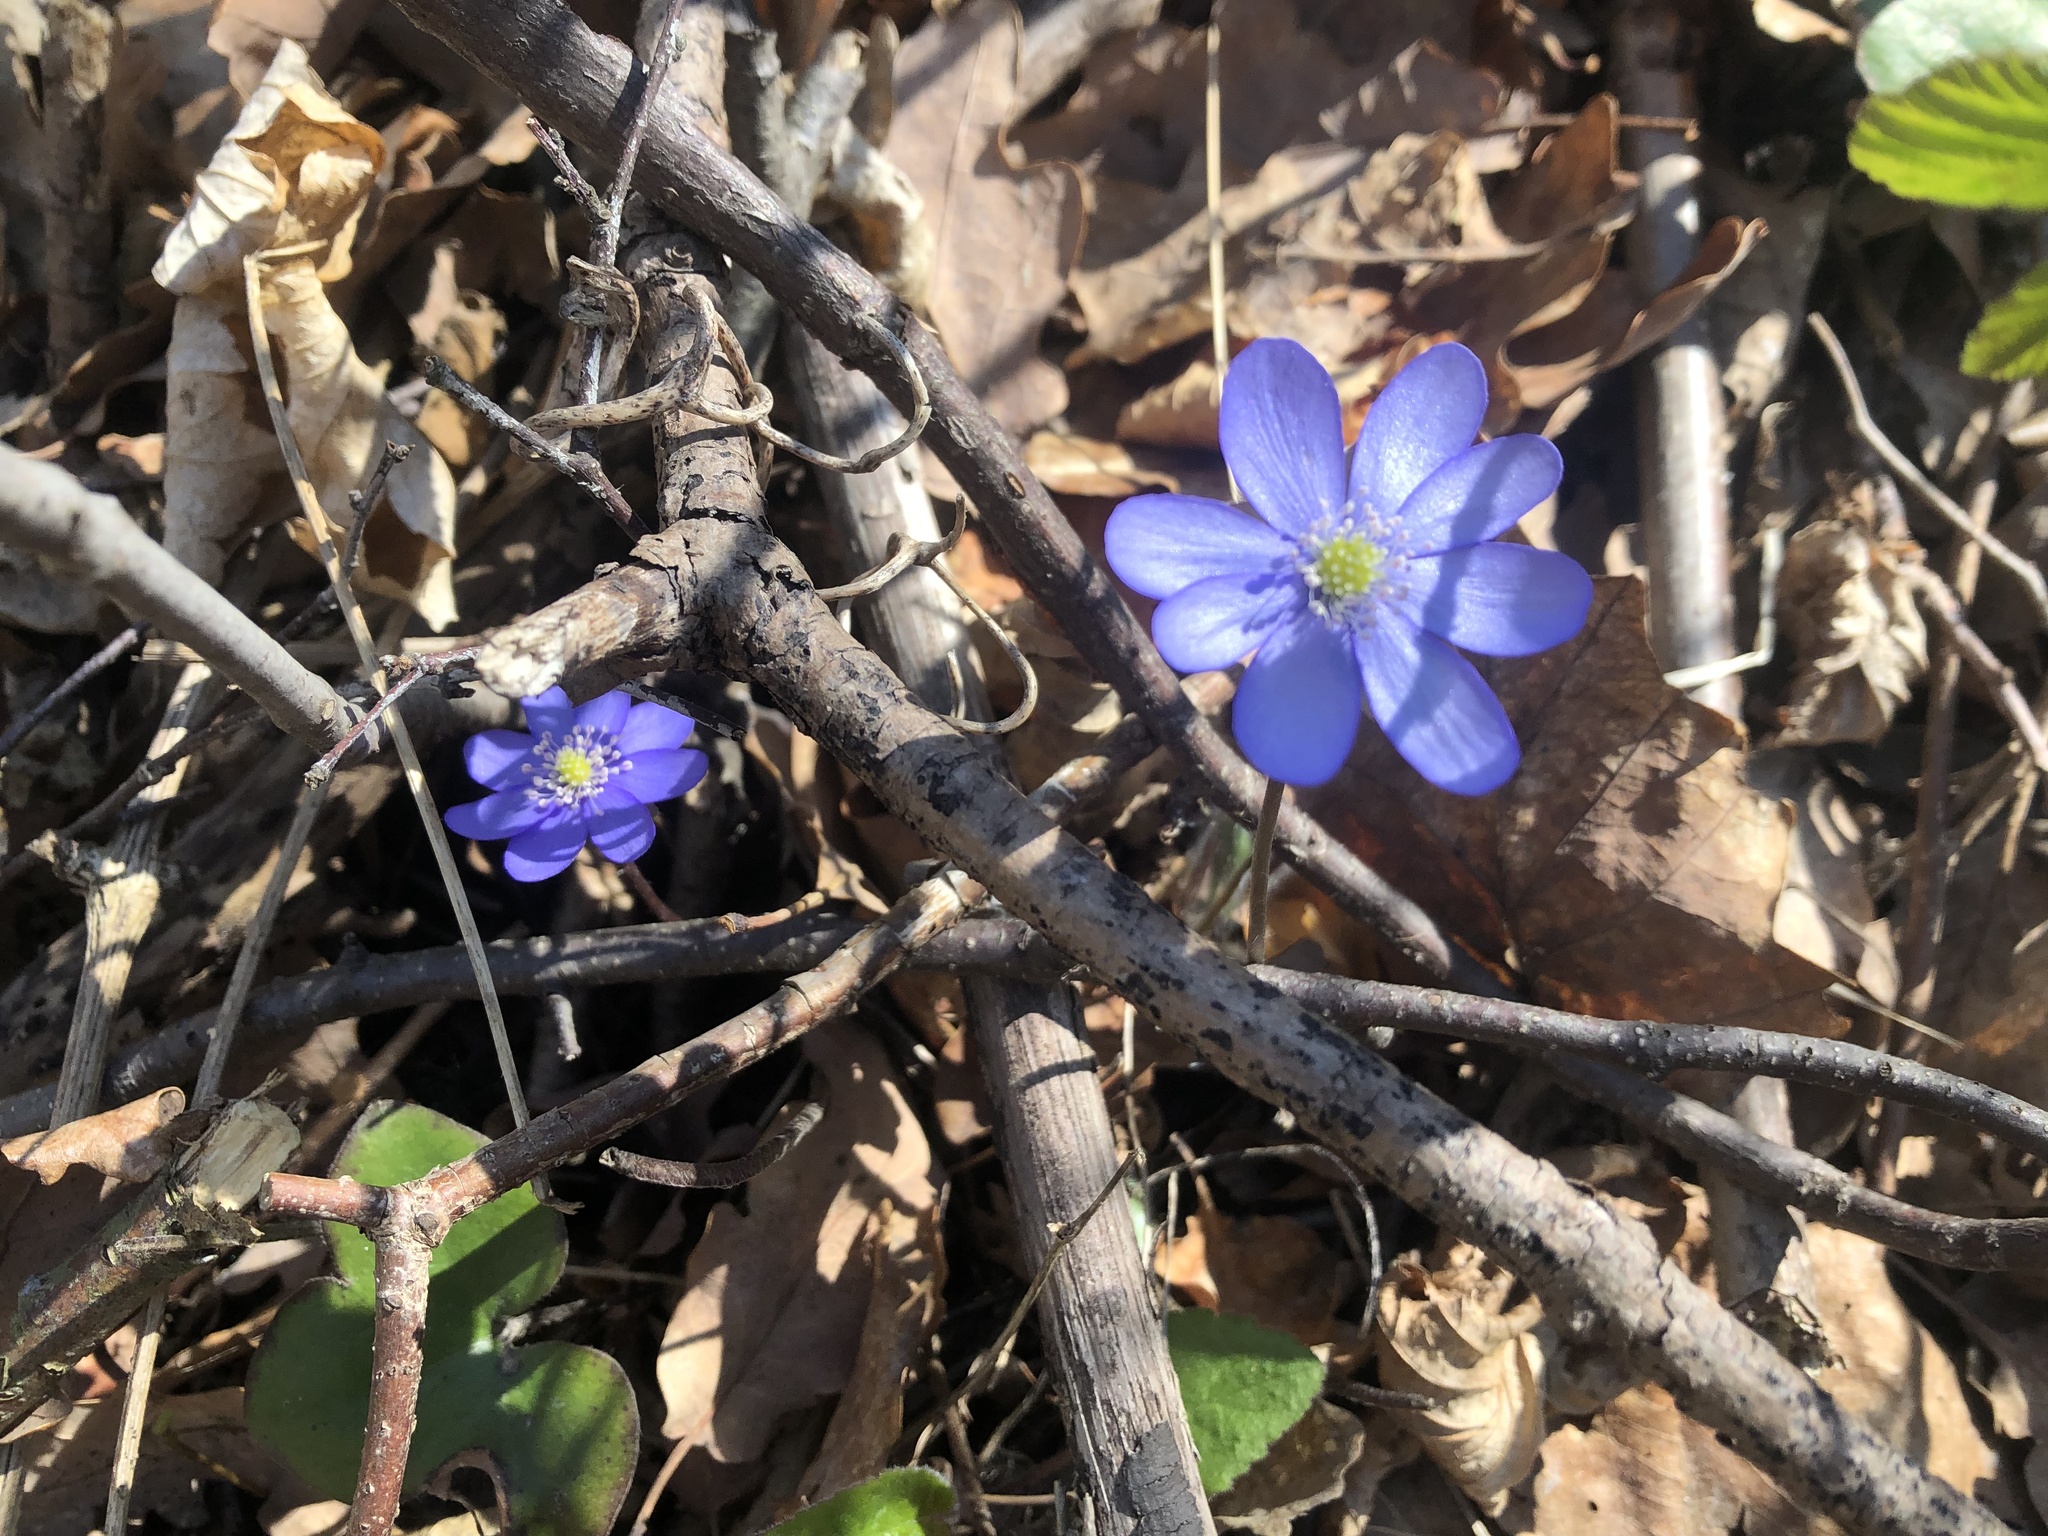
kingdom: Plantae
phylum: Tracheophyta
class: Magnoliopsida
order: Ranunculales
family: Ranunculaceae
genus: Hepatica
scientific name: Hepatica nobilis
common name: Liverleaf
